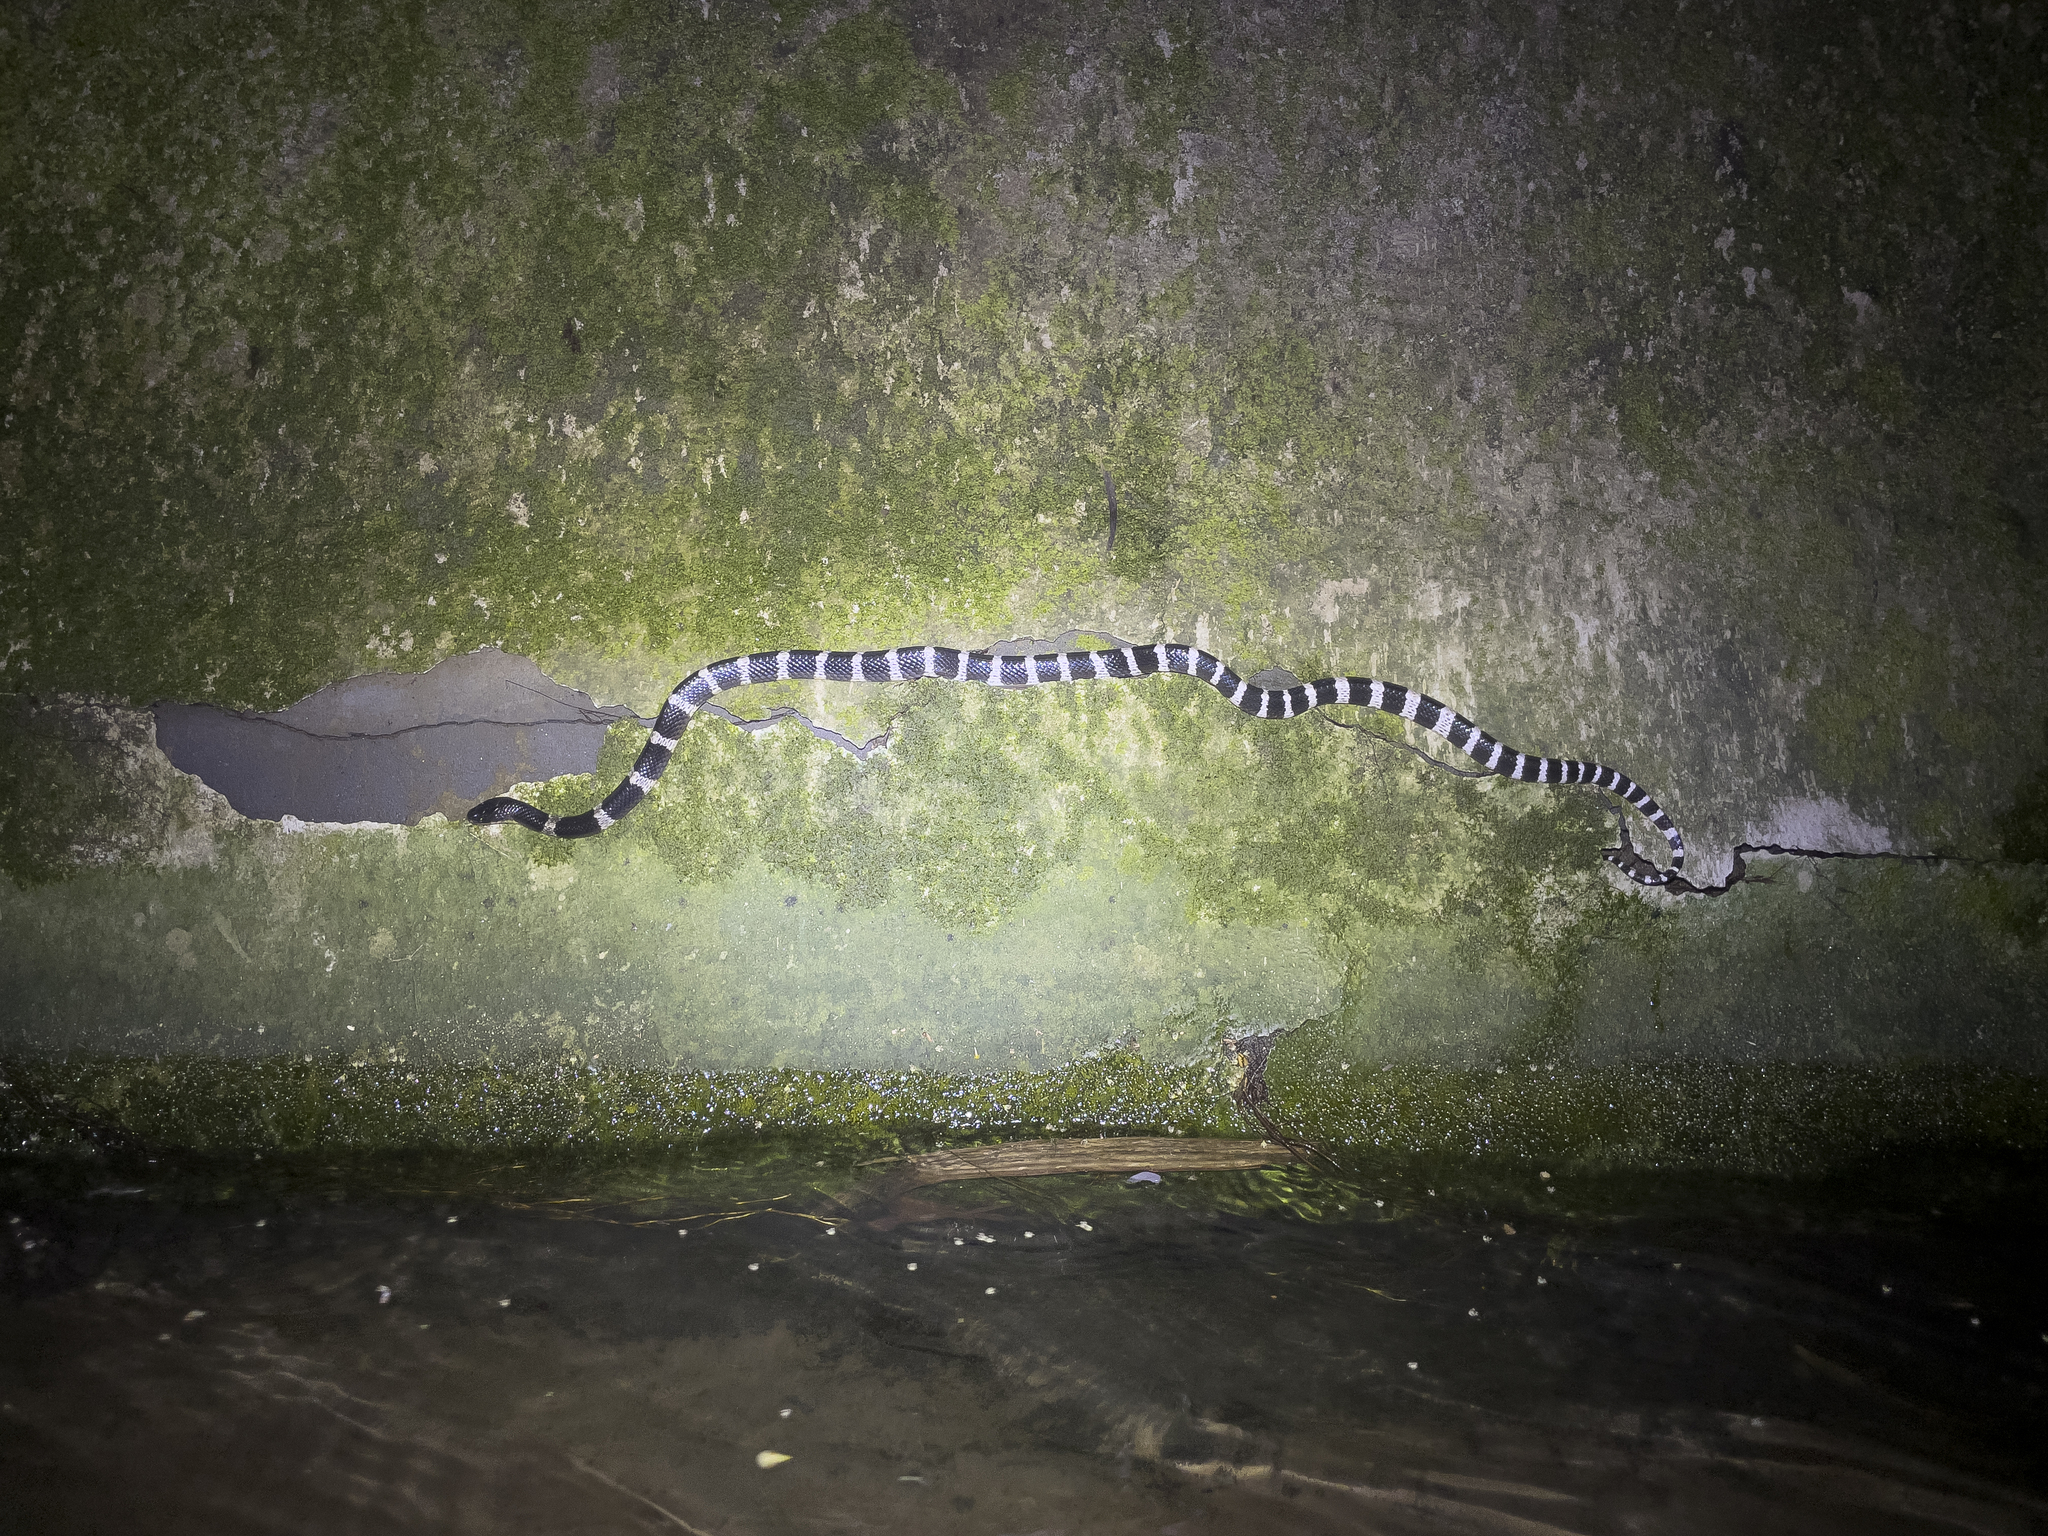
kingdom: Animalia
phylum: Chordata
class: Squamata
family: Elapidae
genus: Bungarus
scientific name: Bungarus multicinctus
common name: Many-banded krait
